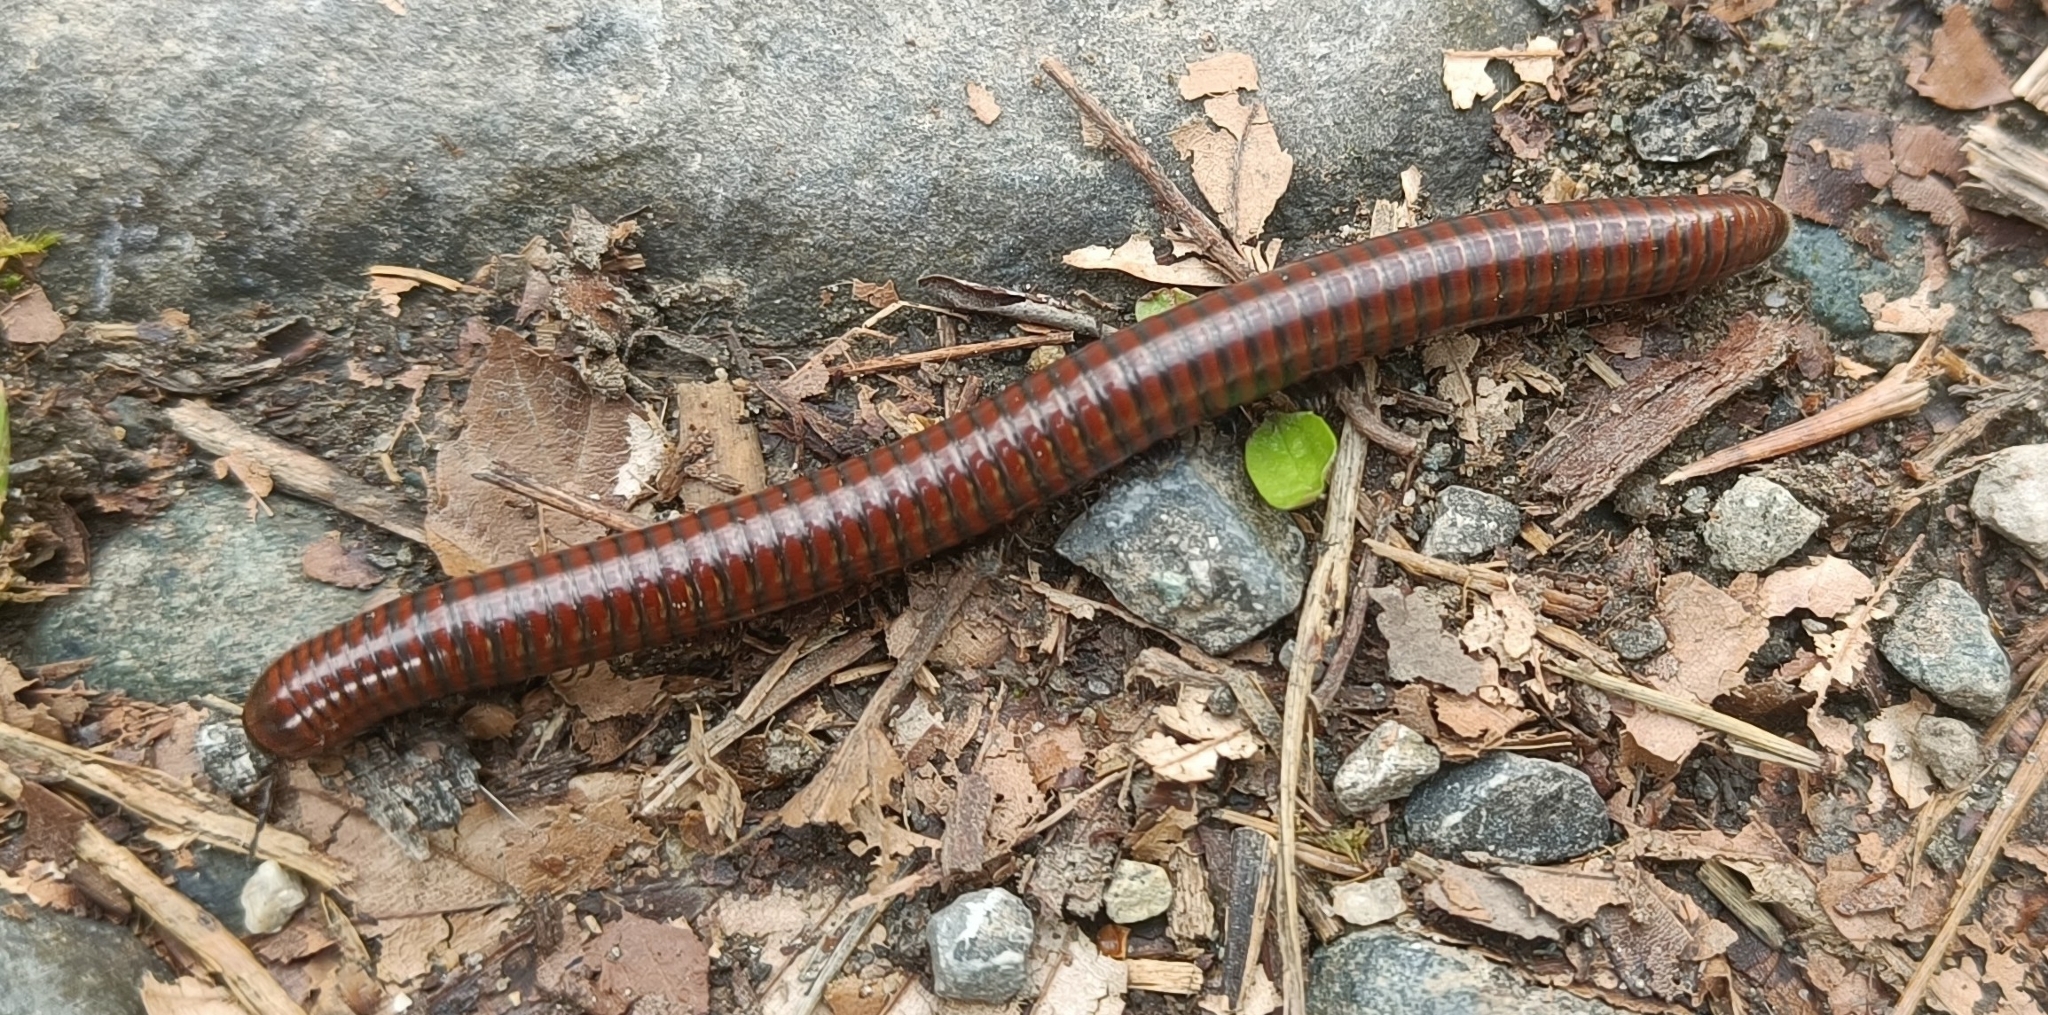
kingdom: Animalia
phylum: Arthropoda
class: Diplopoda
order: Julida
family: Julidae
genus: Pachyiulus
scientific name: Pachyiulus hungaricus
